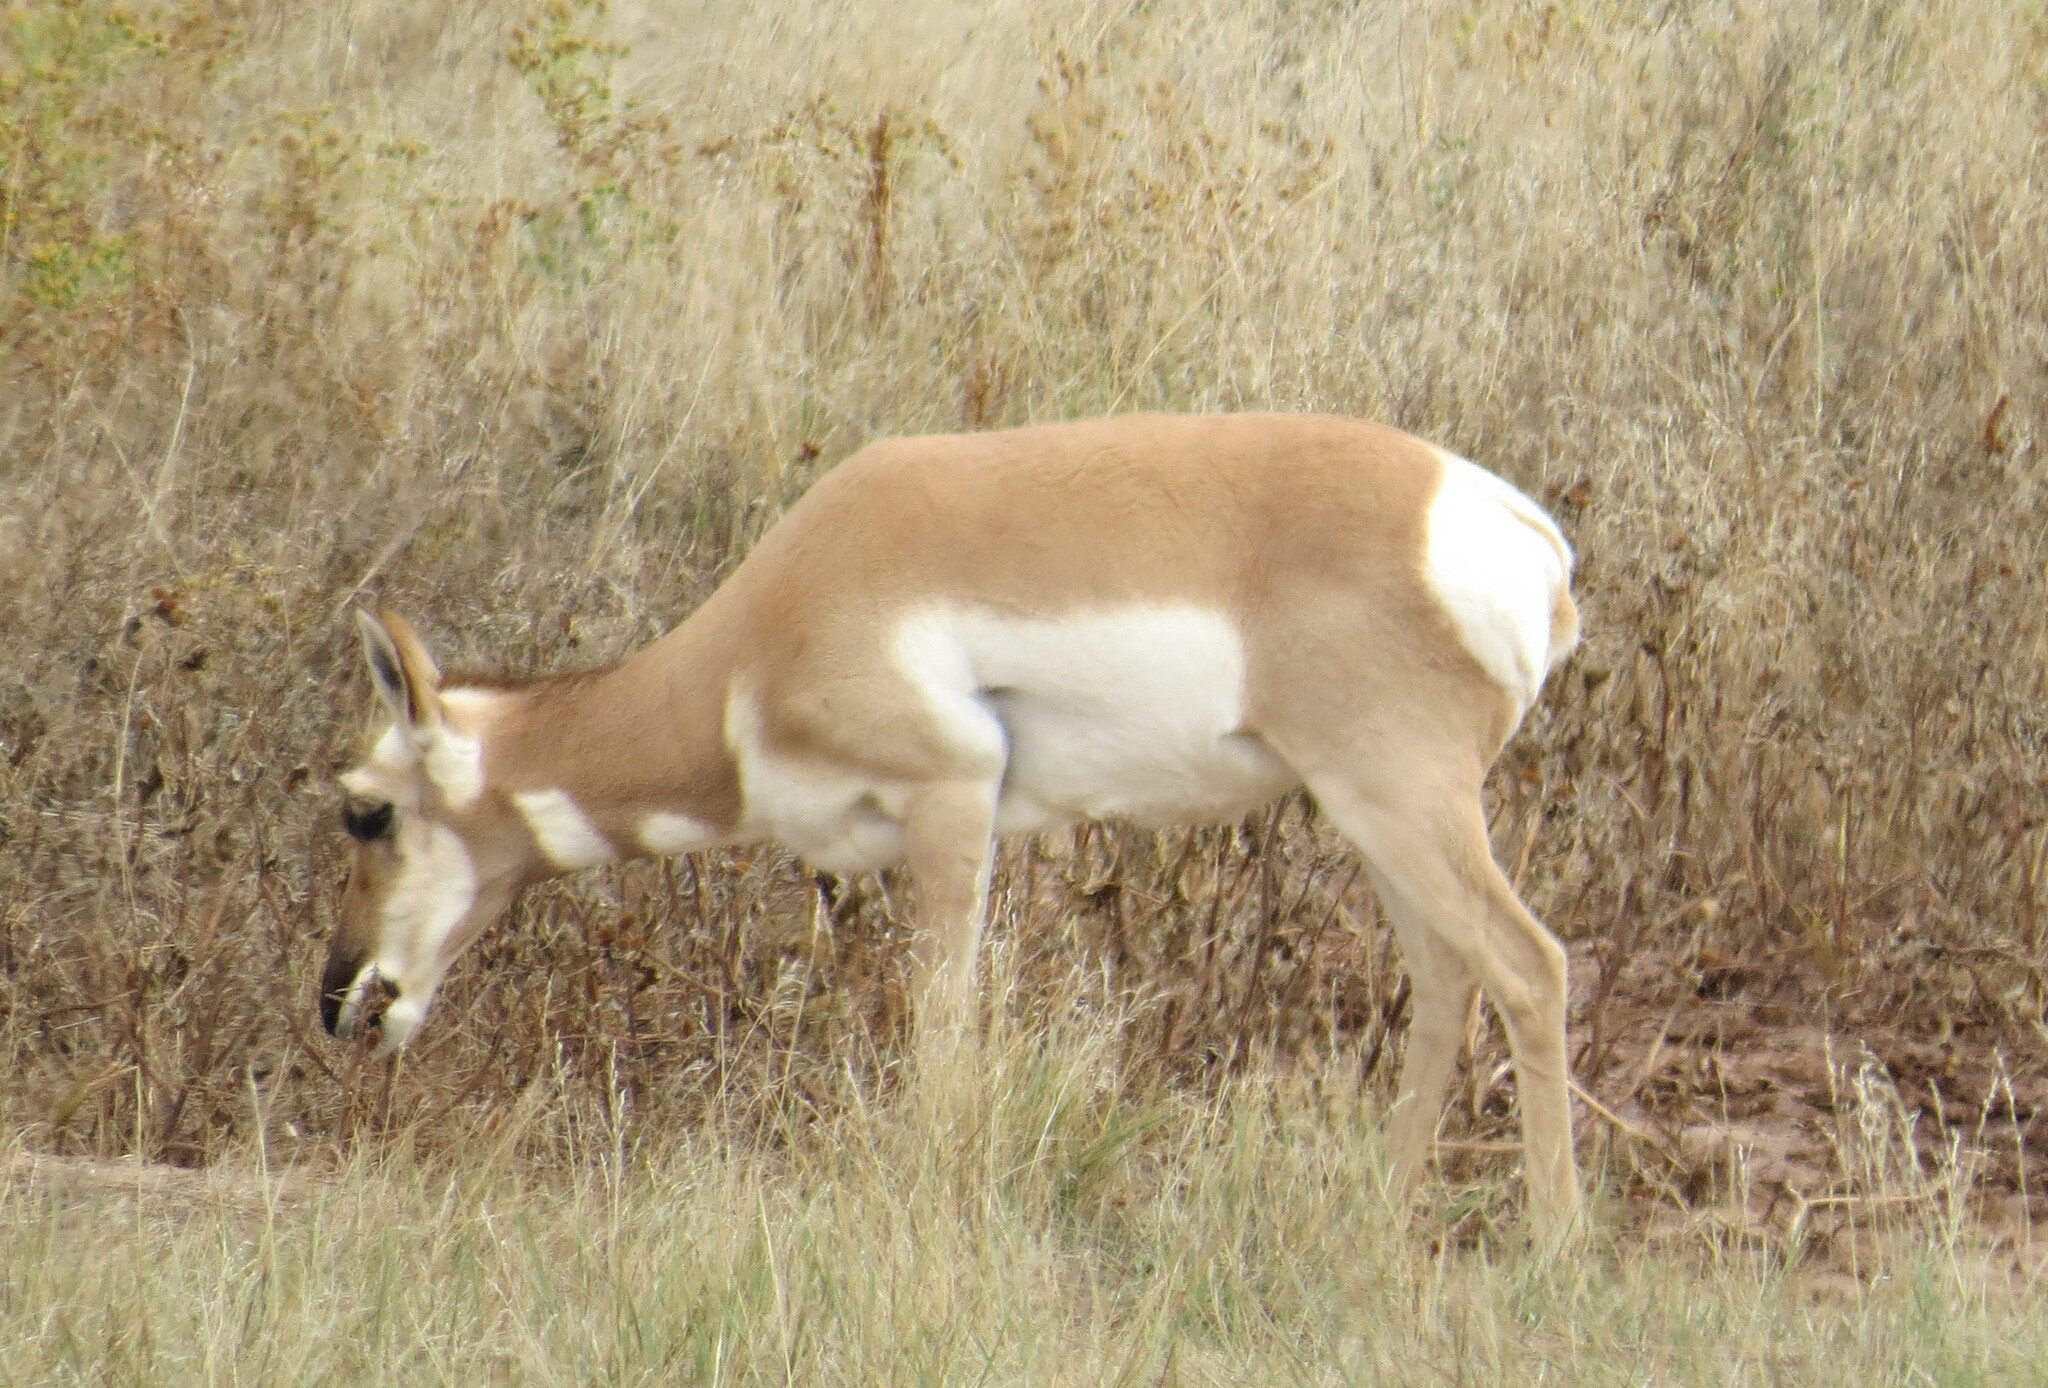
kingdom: Animalia
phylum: Chordata
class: Mammalia
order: Artiodactyla
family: Antilocapridae
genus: Antilocapra
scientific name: Antilocapra americana
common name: Pronghorn
